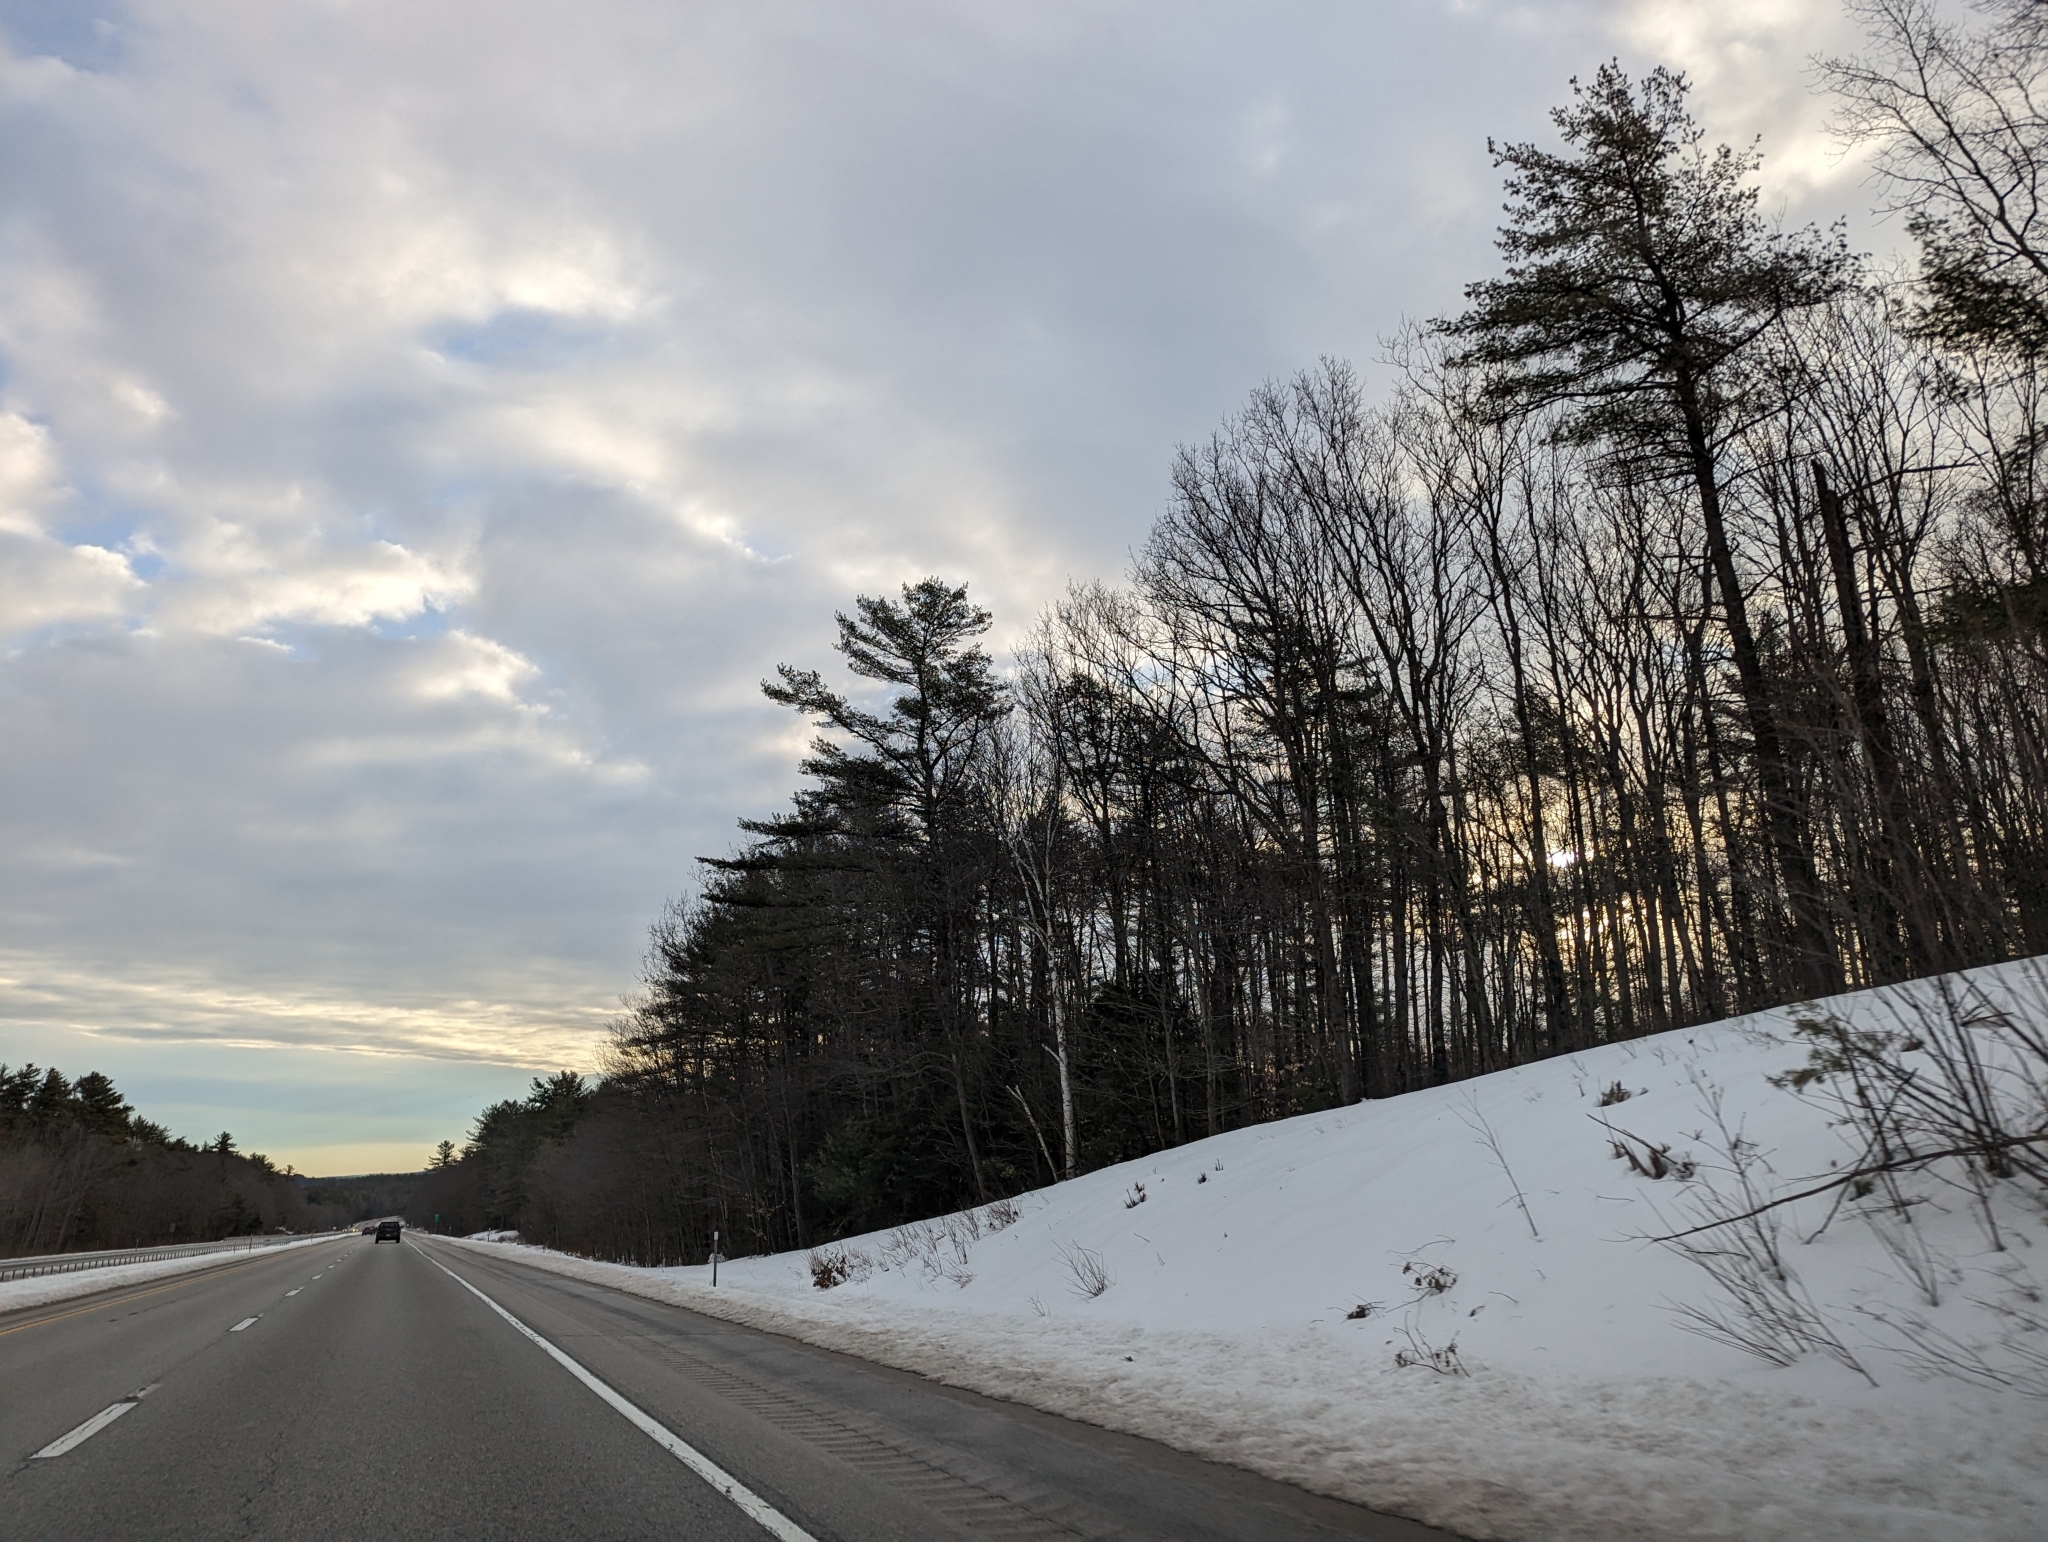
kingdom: Plantae
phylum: Tracheophyta
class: Pinopsida
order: Pinales
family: Pinaceae
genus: Pinus
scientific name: Pinus strobus
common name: Weymouth pine
